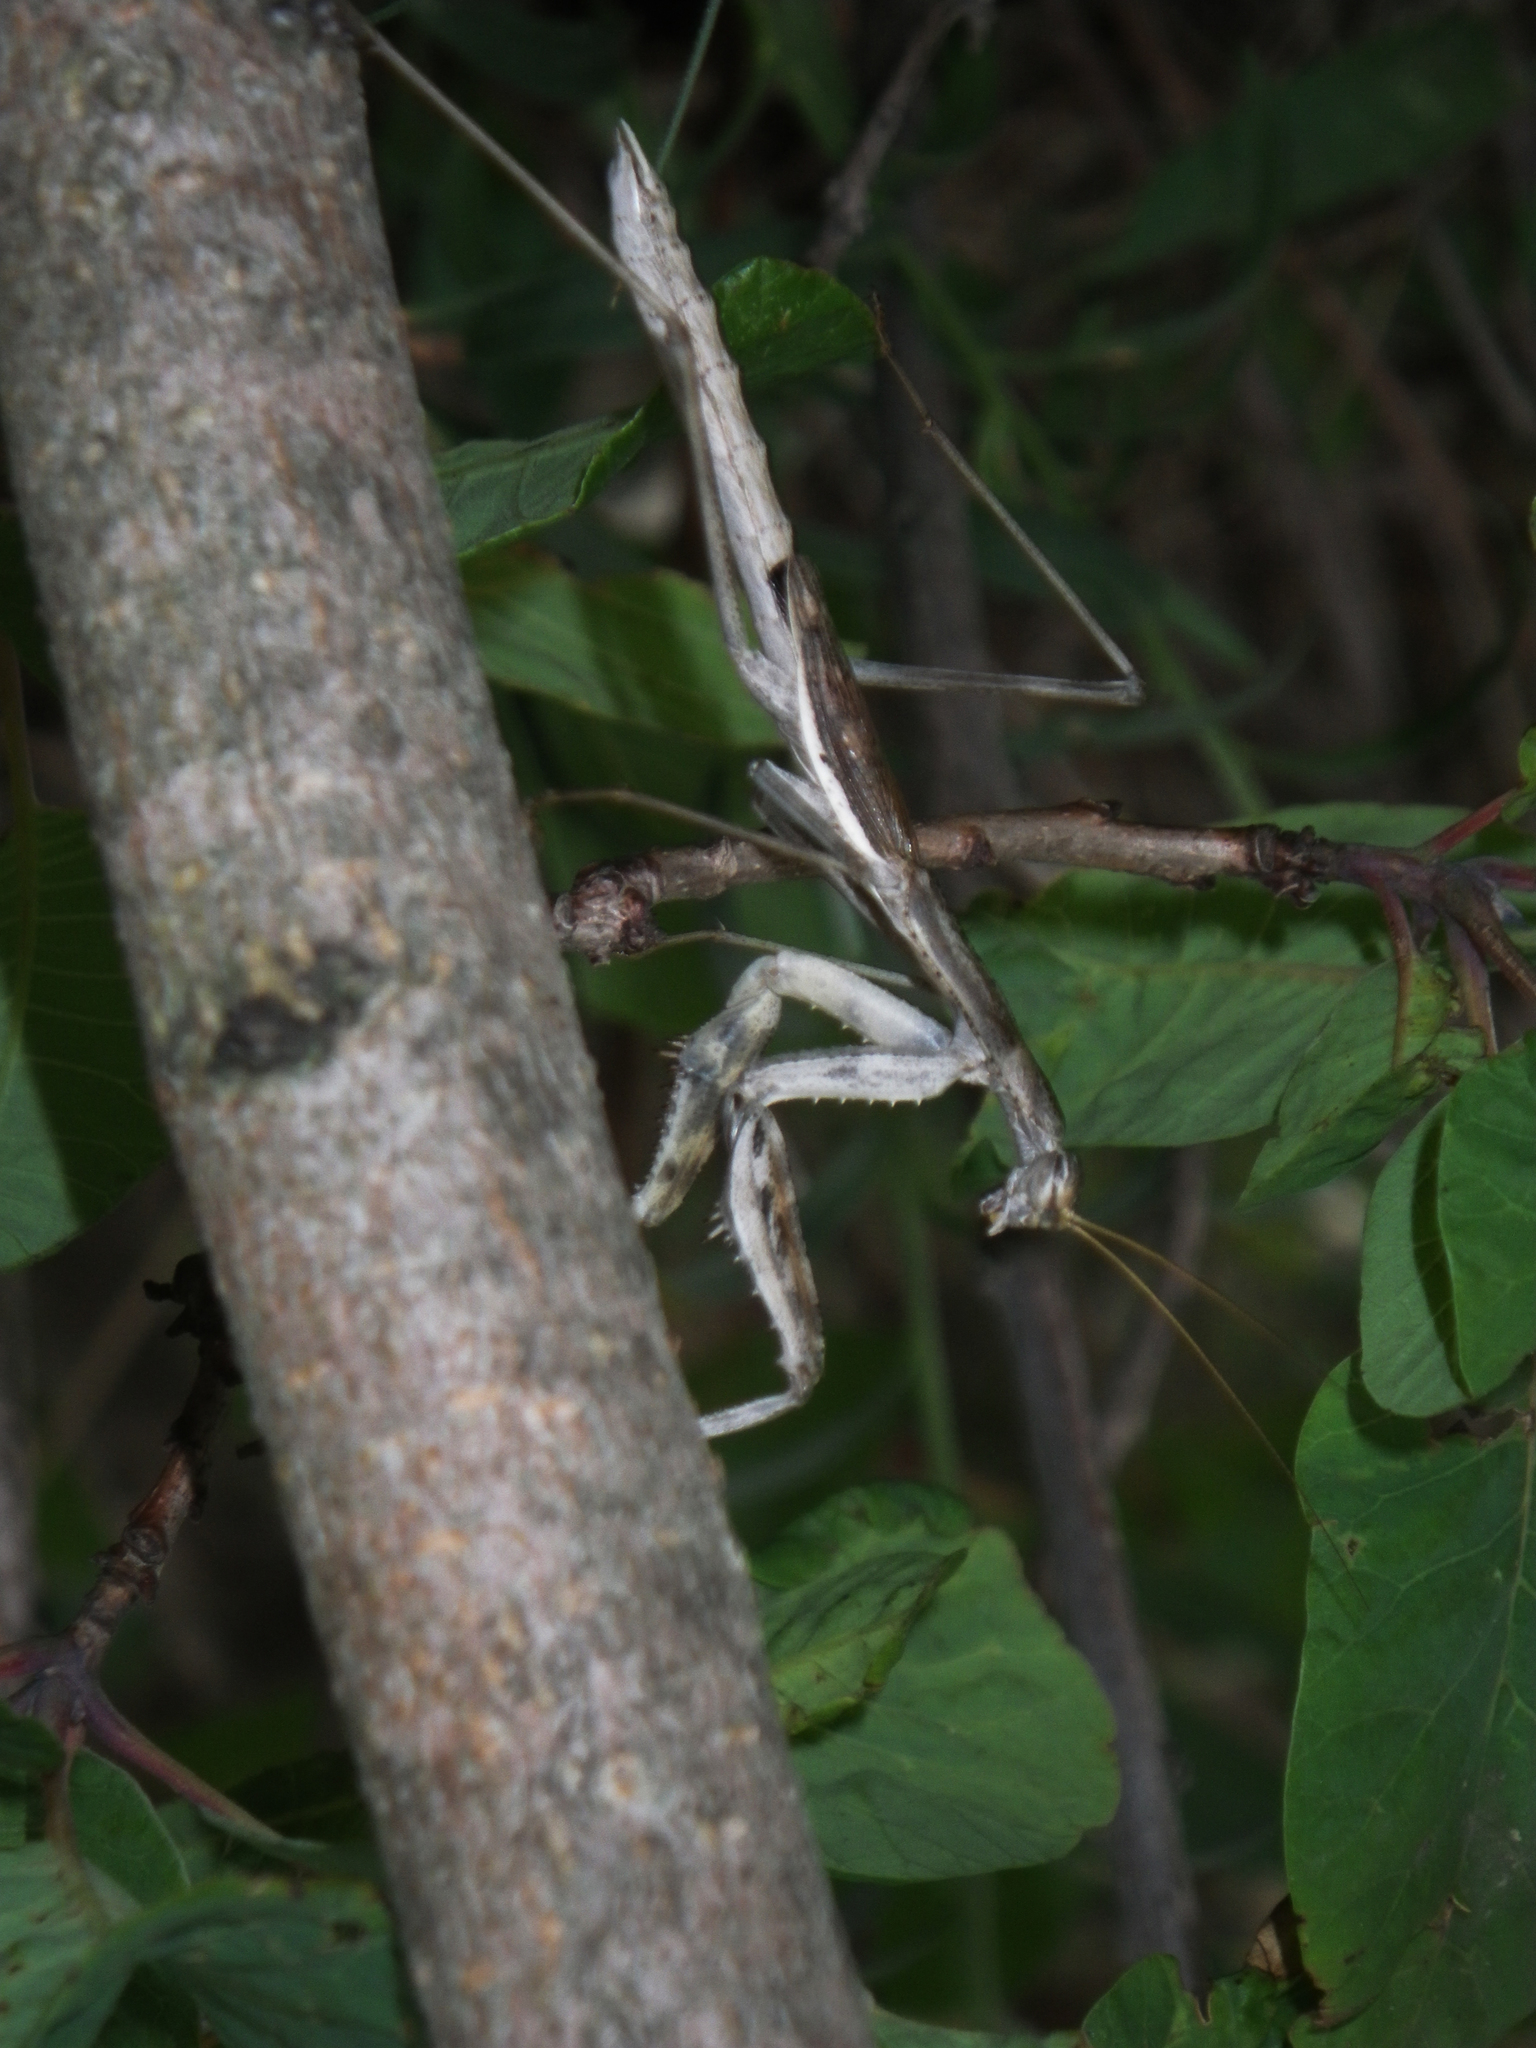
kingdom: Animalia
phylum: Arthropoda
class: Insecta
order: Mantodea
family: Rivetinidae
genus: Bolivaria
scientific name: Bolivaria brachyptera
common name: Bolivar's short winged mantis
